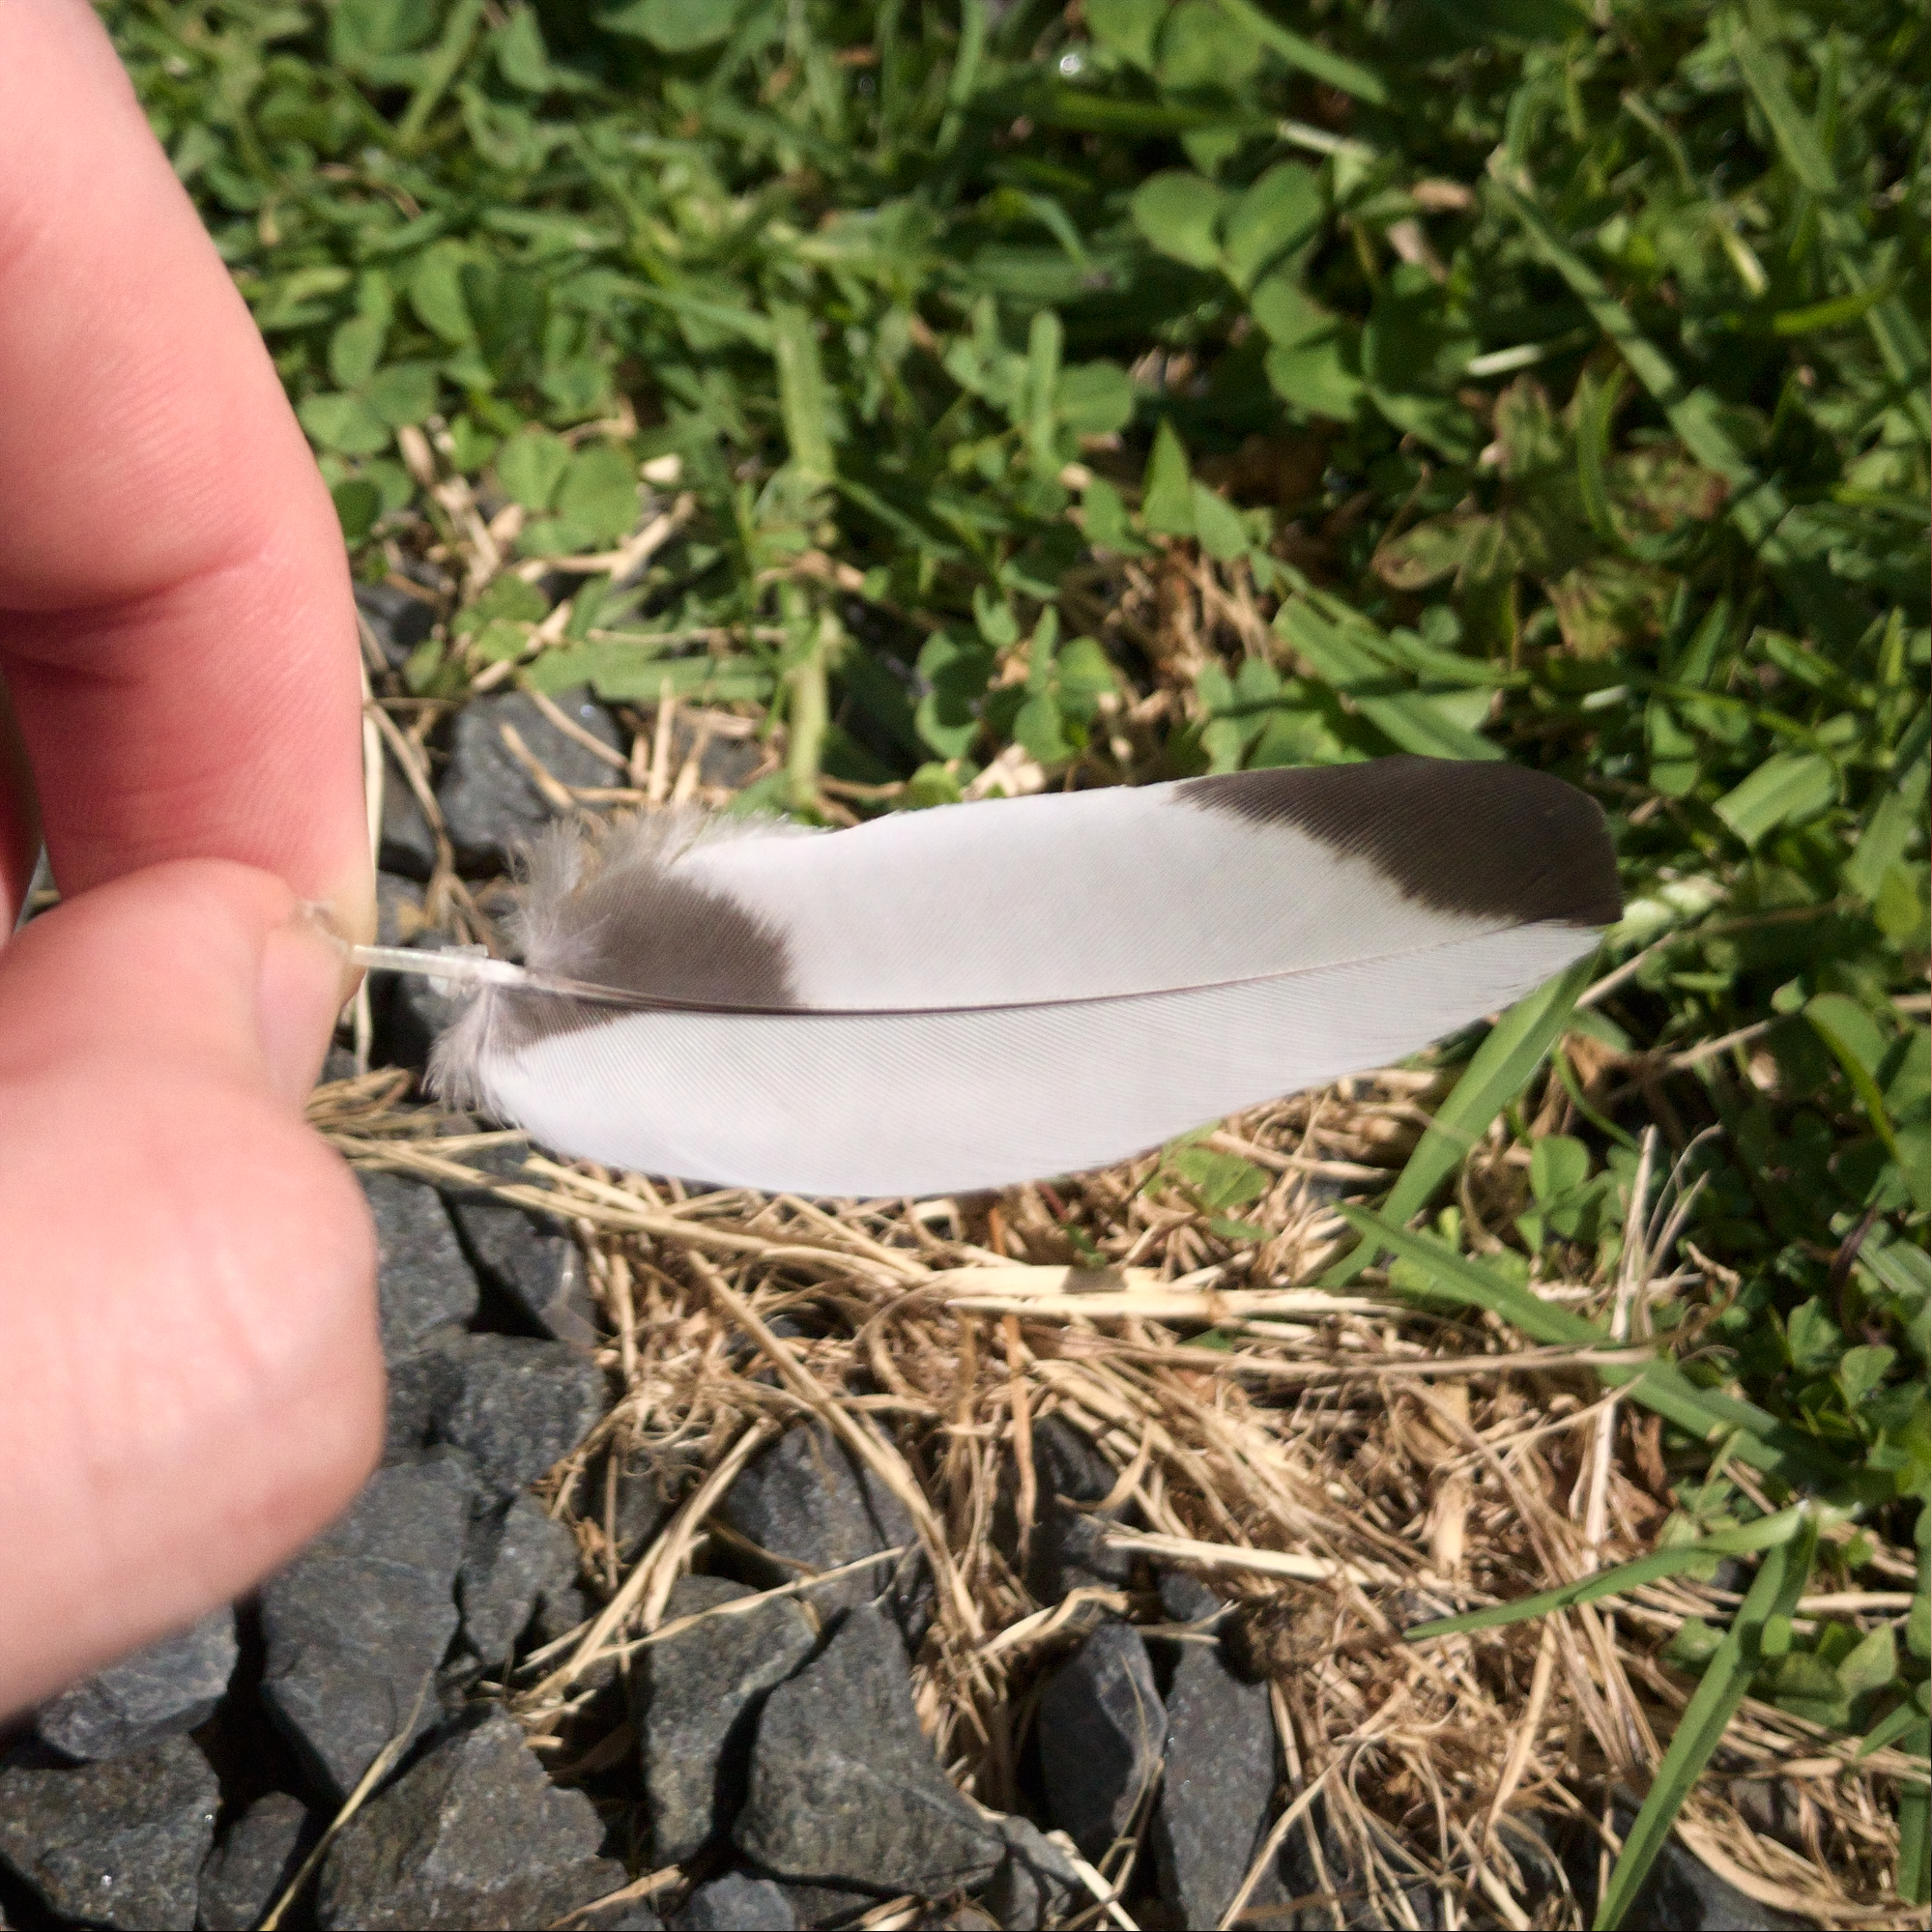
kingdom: Animalia
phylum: Chordata
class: Aves
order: Passeriformes
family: Cracticidae
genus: Gymnorhina
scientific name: Gymnorhina tibicen
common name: Australian magpie
